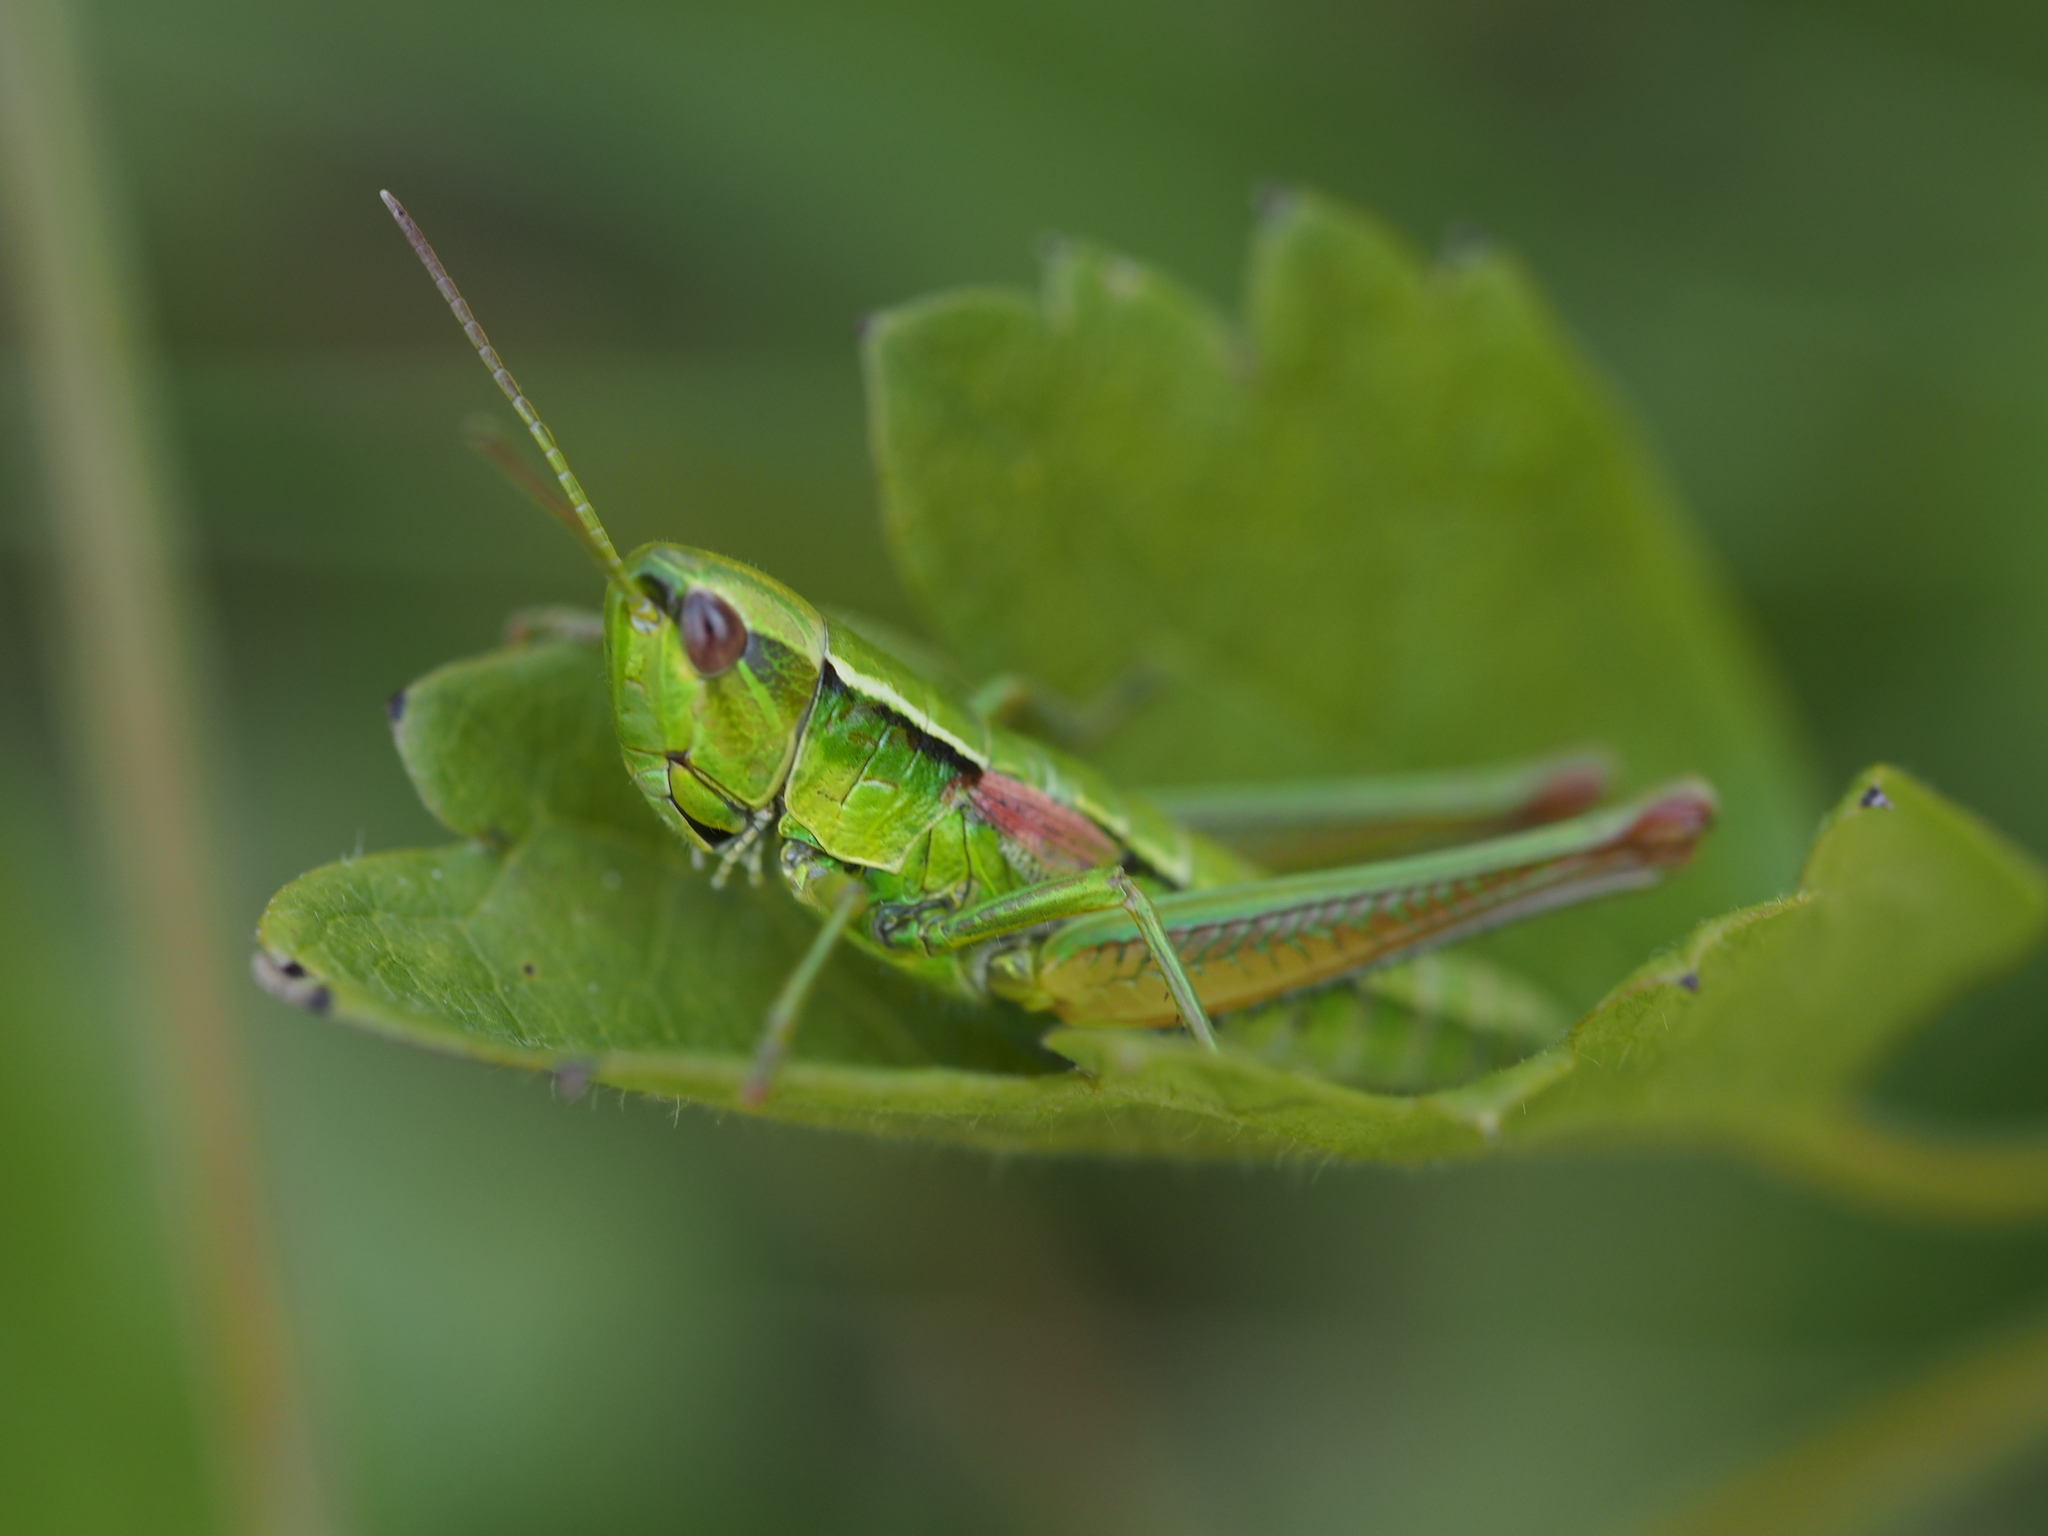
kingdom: Animalia
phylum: Arthropoda
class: Insecta
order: Orthoptera
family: Acrididae
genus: Euthystira
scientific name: Euthystira brachyptera
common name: Small gold grasshopper
